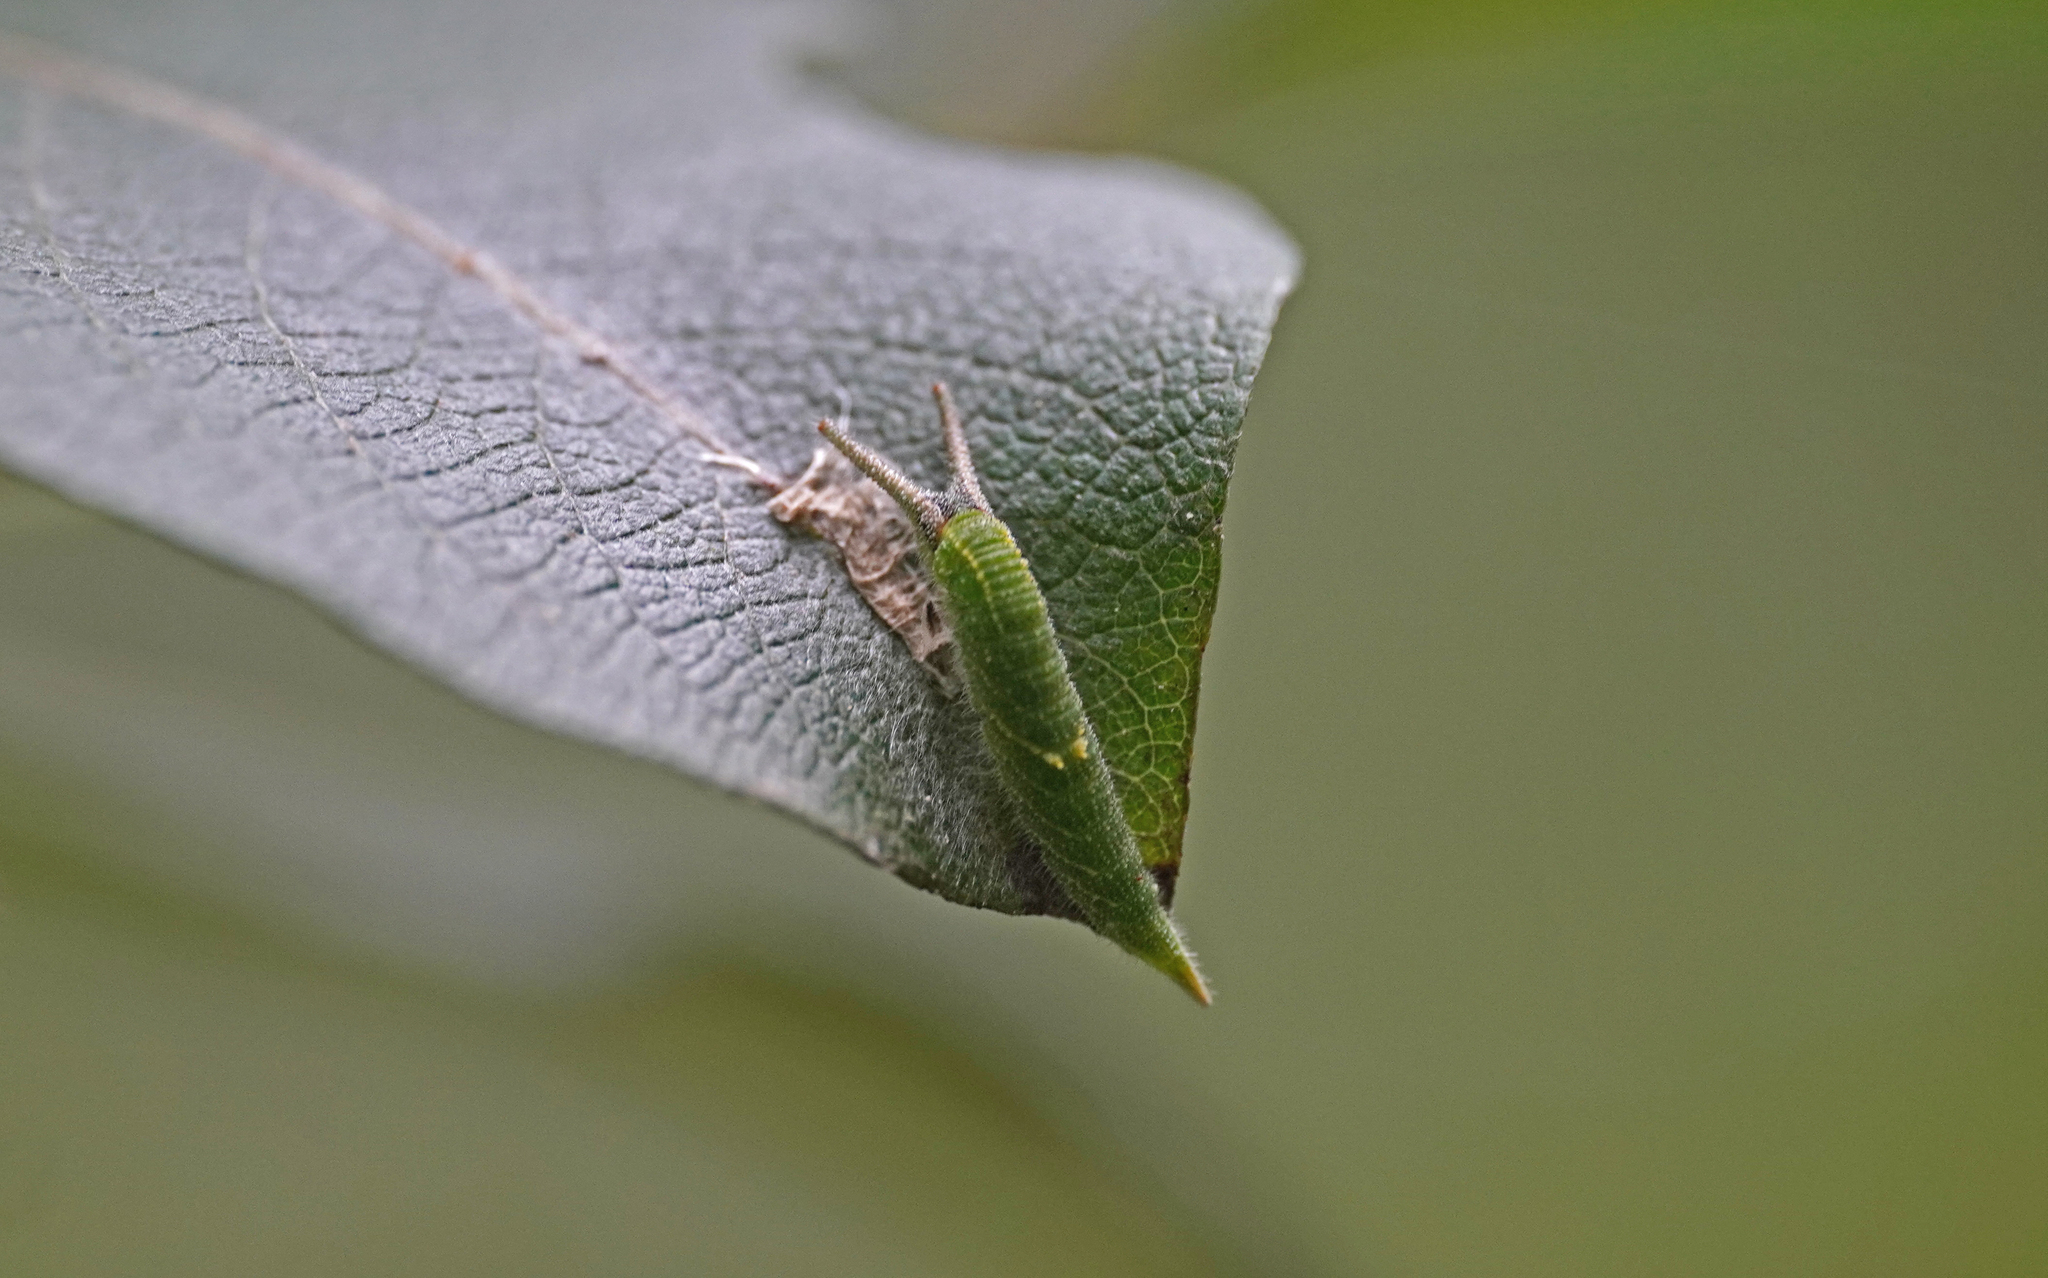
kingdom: Animalia
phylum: Arthropoda
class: Insecta
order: Lepidoptera
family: Nymphalidae
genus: Apatura
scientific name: Apatura iris
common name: Purple emperor
